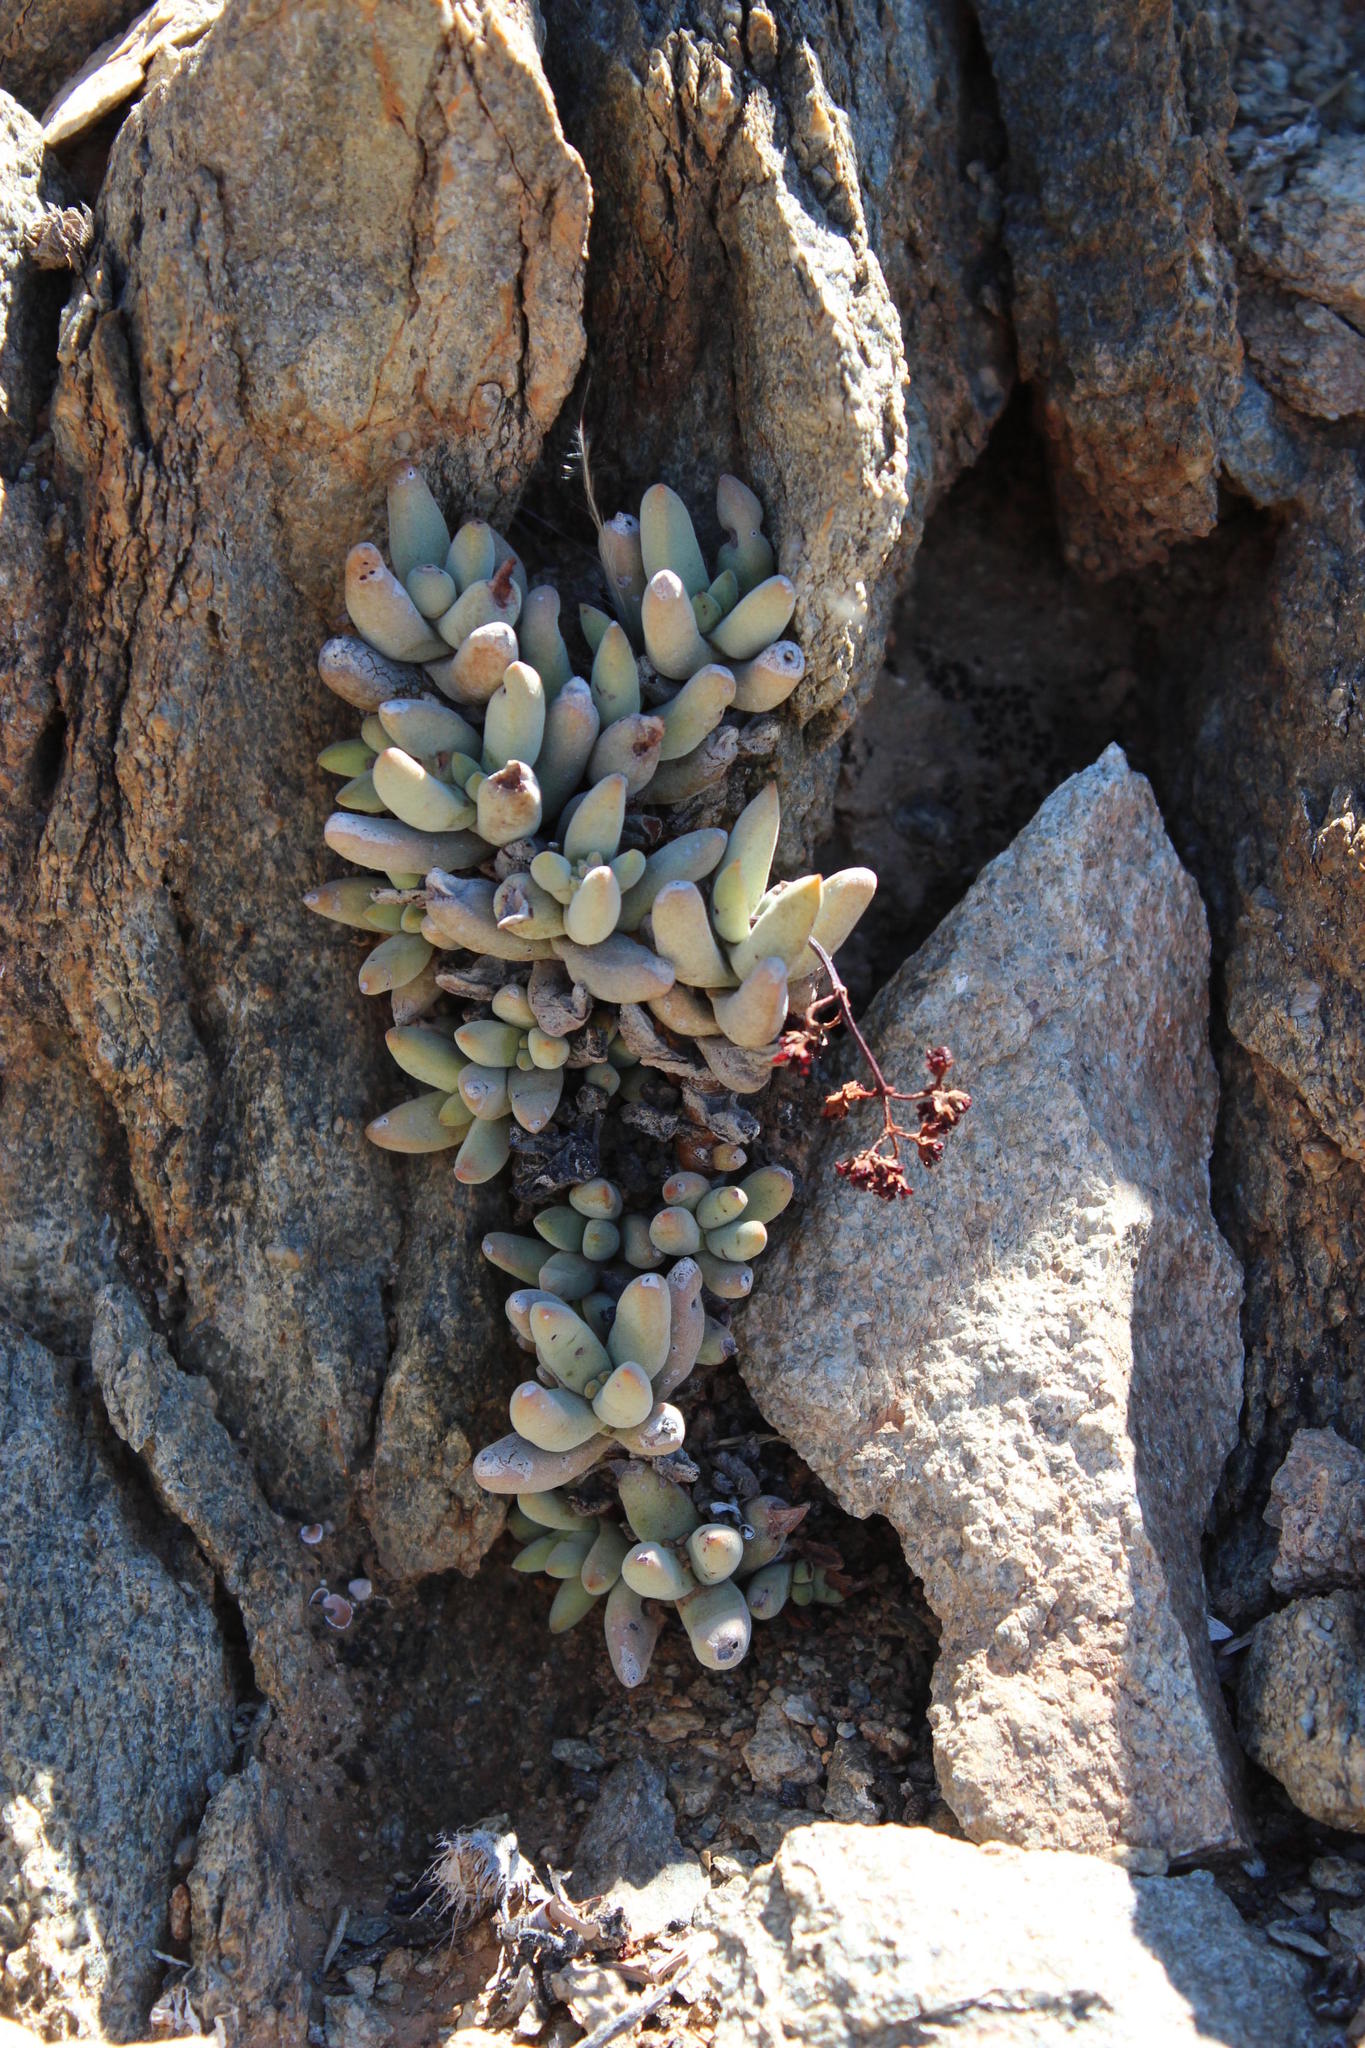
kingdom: Plantae
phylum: Tracheophyta
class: Magnoliopsida
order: Saxifragales
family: Crassulaceae
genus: Crassula
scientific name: Crassula garibina
